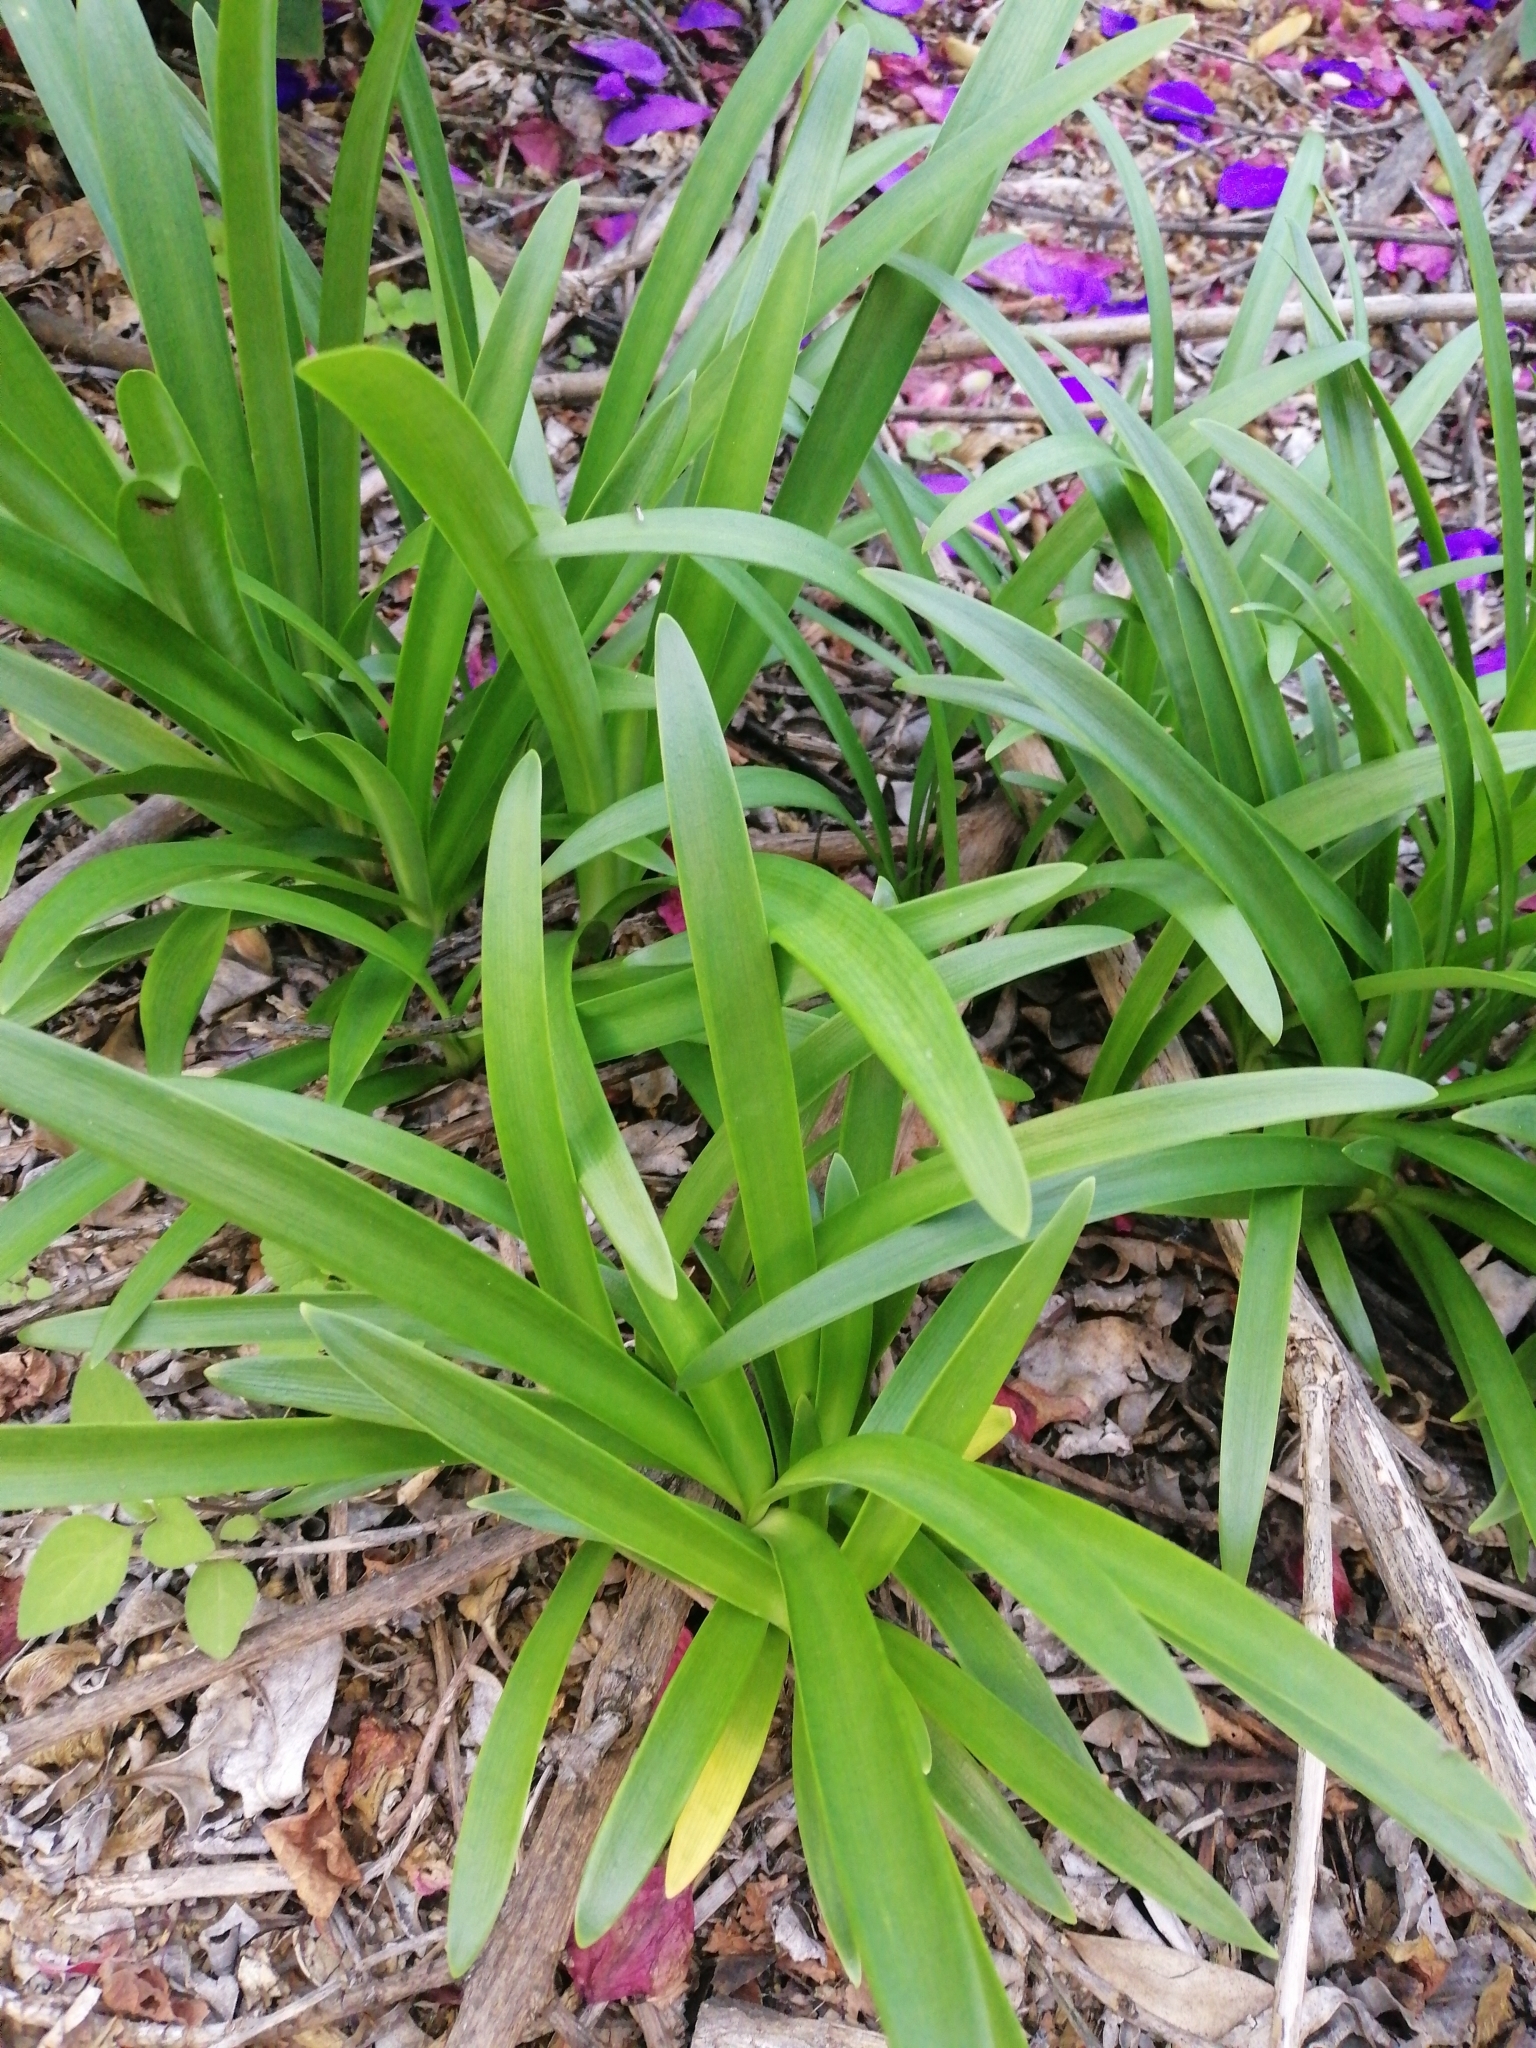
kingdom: Plantae
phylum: Tracheophyta
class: Liliopsida
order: Asparagales
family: Amaryllidaceae
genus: Agapanthus
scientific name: Agapanthus praecox
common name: African-lily
